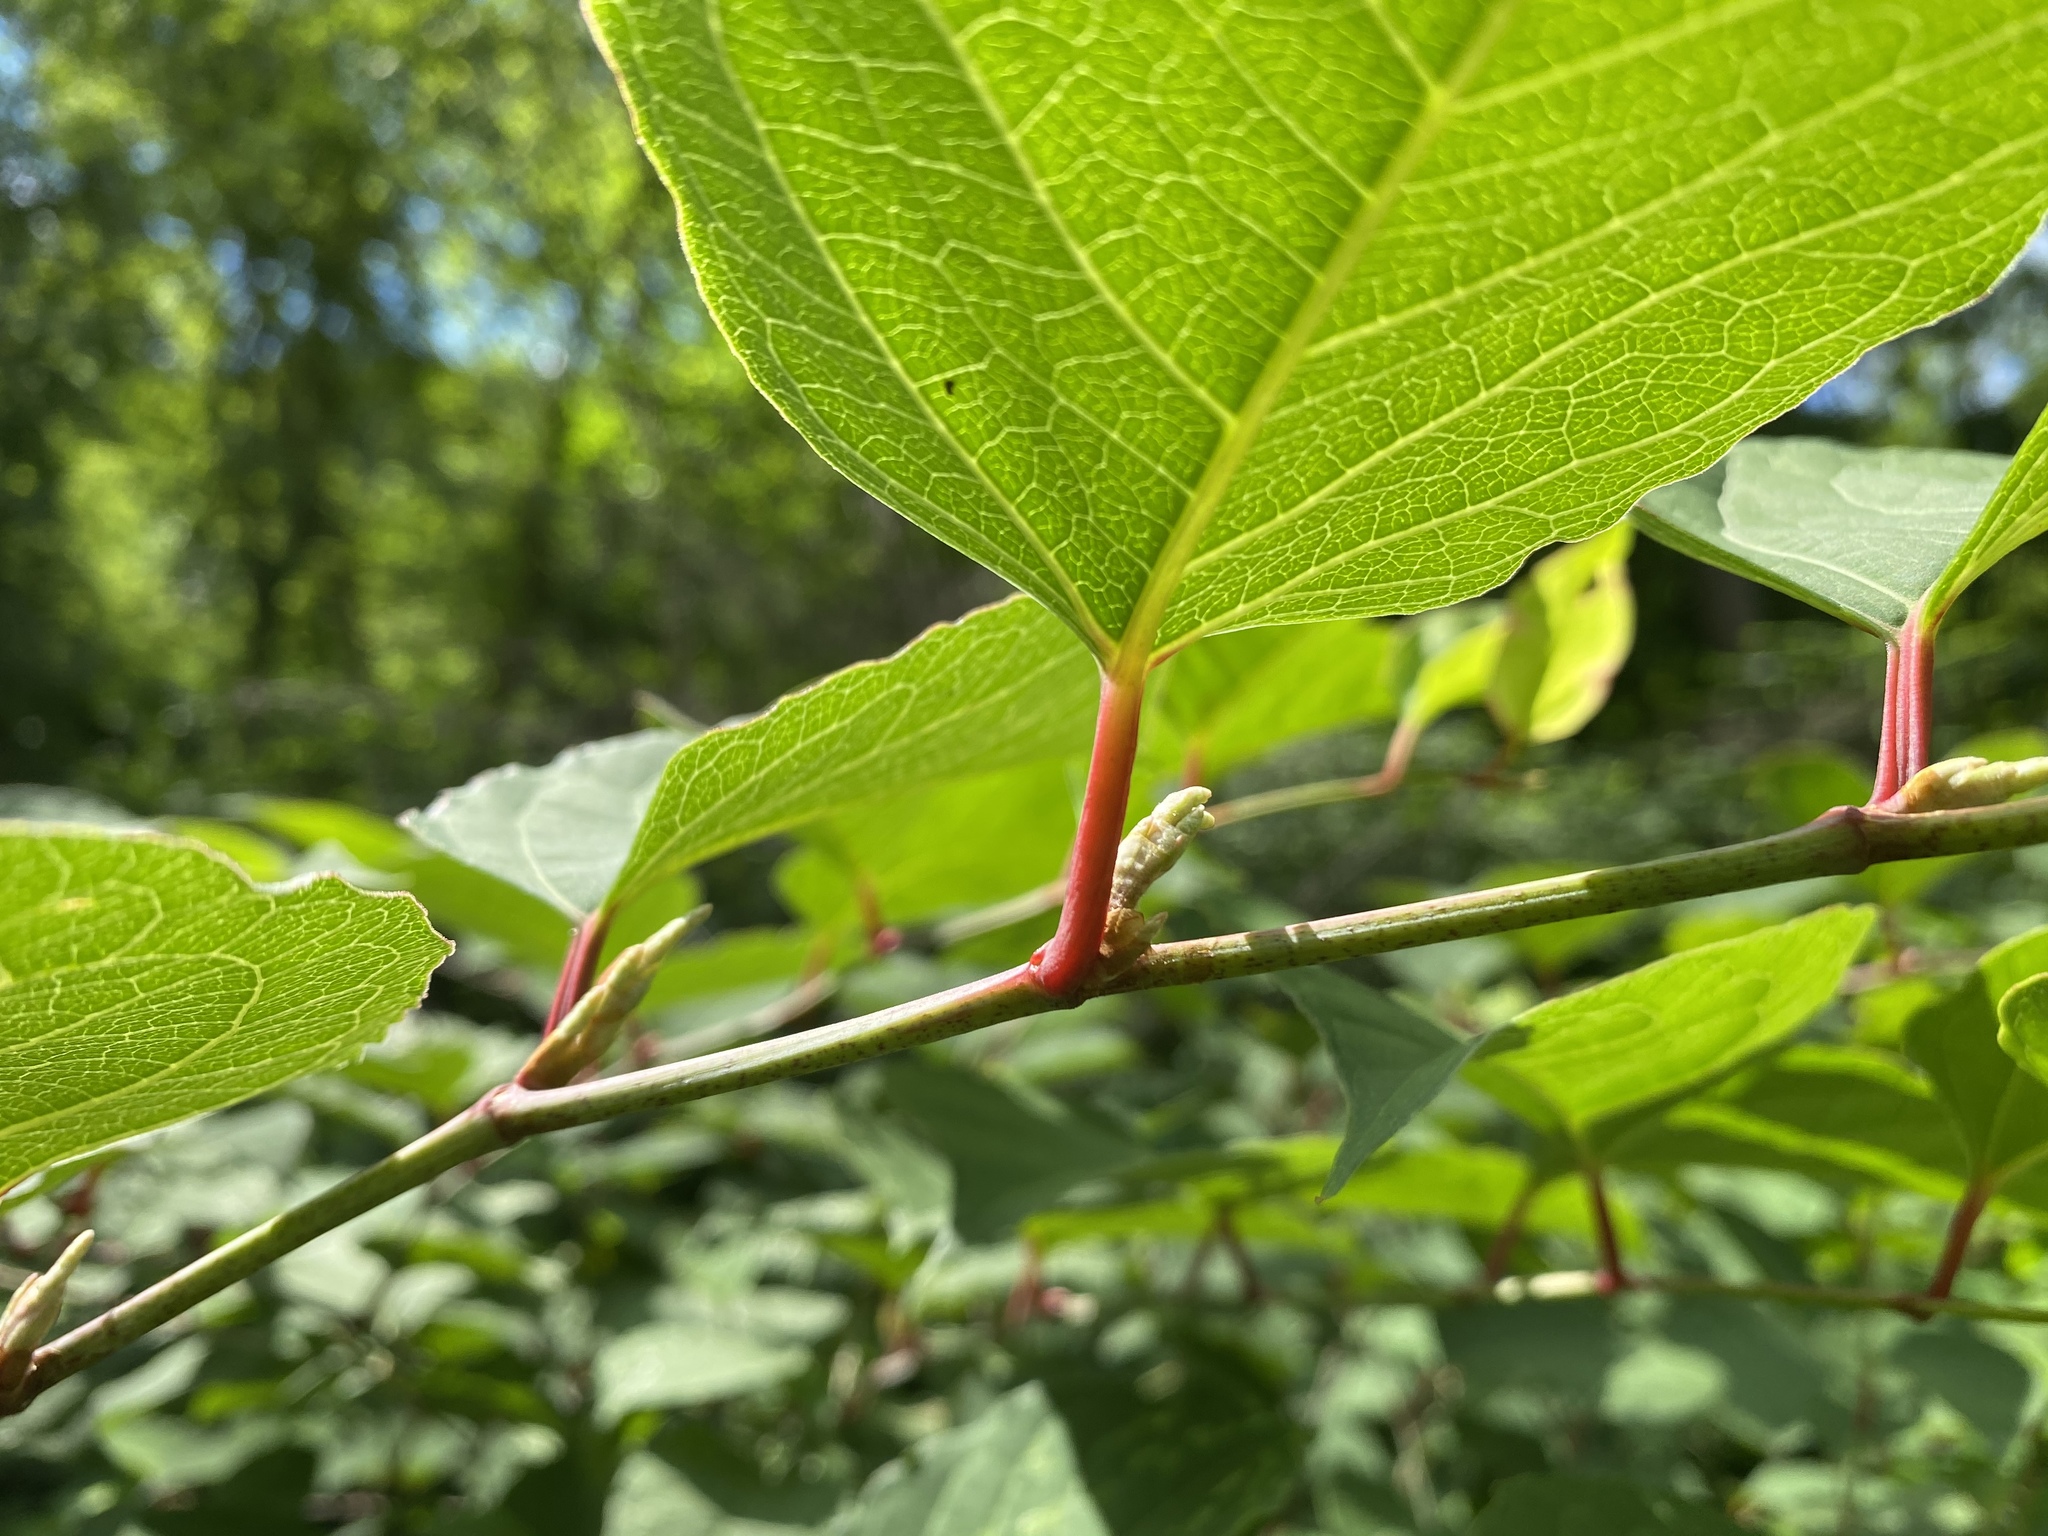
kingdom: Plantae
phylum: Tracheophyta
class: Magnoliopsida
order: Caryophyllales
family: Polygonaceae
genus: Reynoutria
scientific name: Reynoutria japonica
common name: Japanese knotweed
